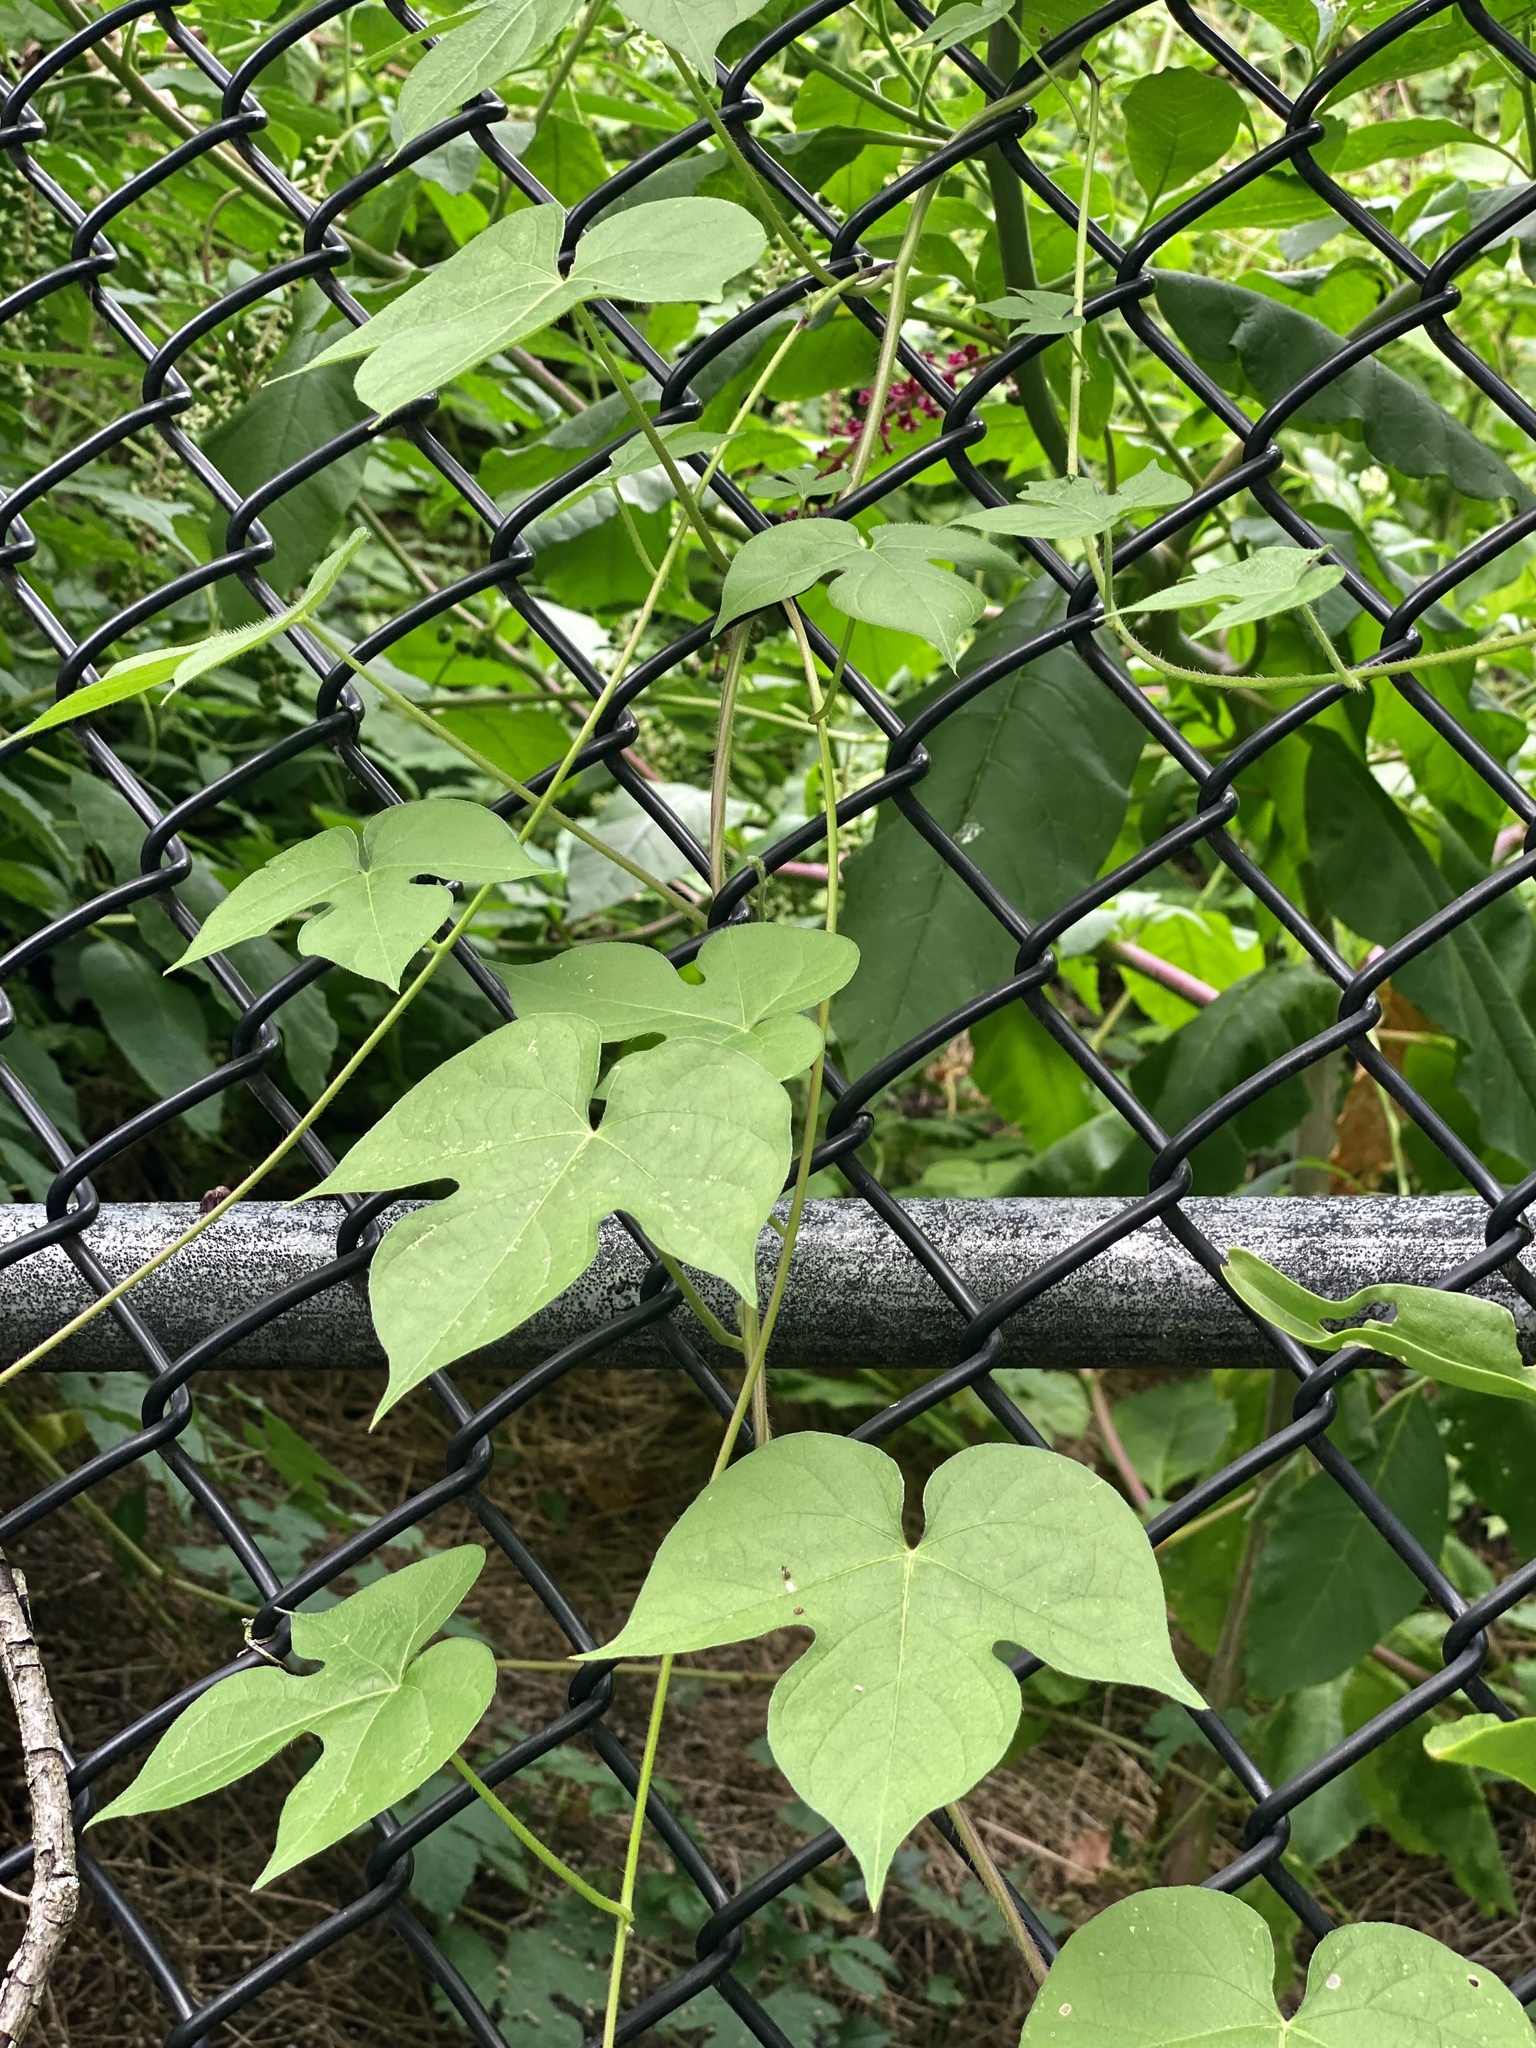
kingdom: Plantae
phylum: Tracheophyta
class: Magnoliopsida
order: Solanales
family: Convolvulaceae
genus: Ipomoea
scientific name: Ipomoea hederacea
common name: Ivy-leaved morning-glory
